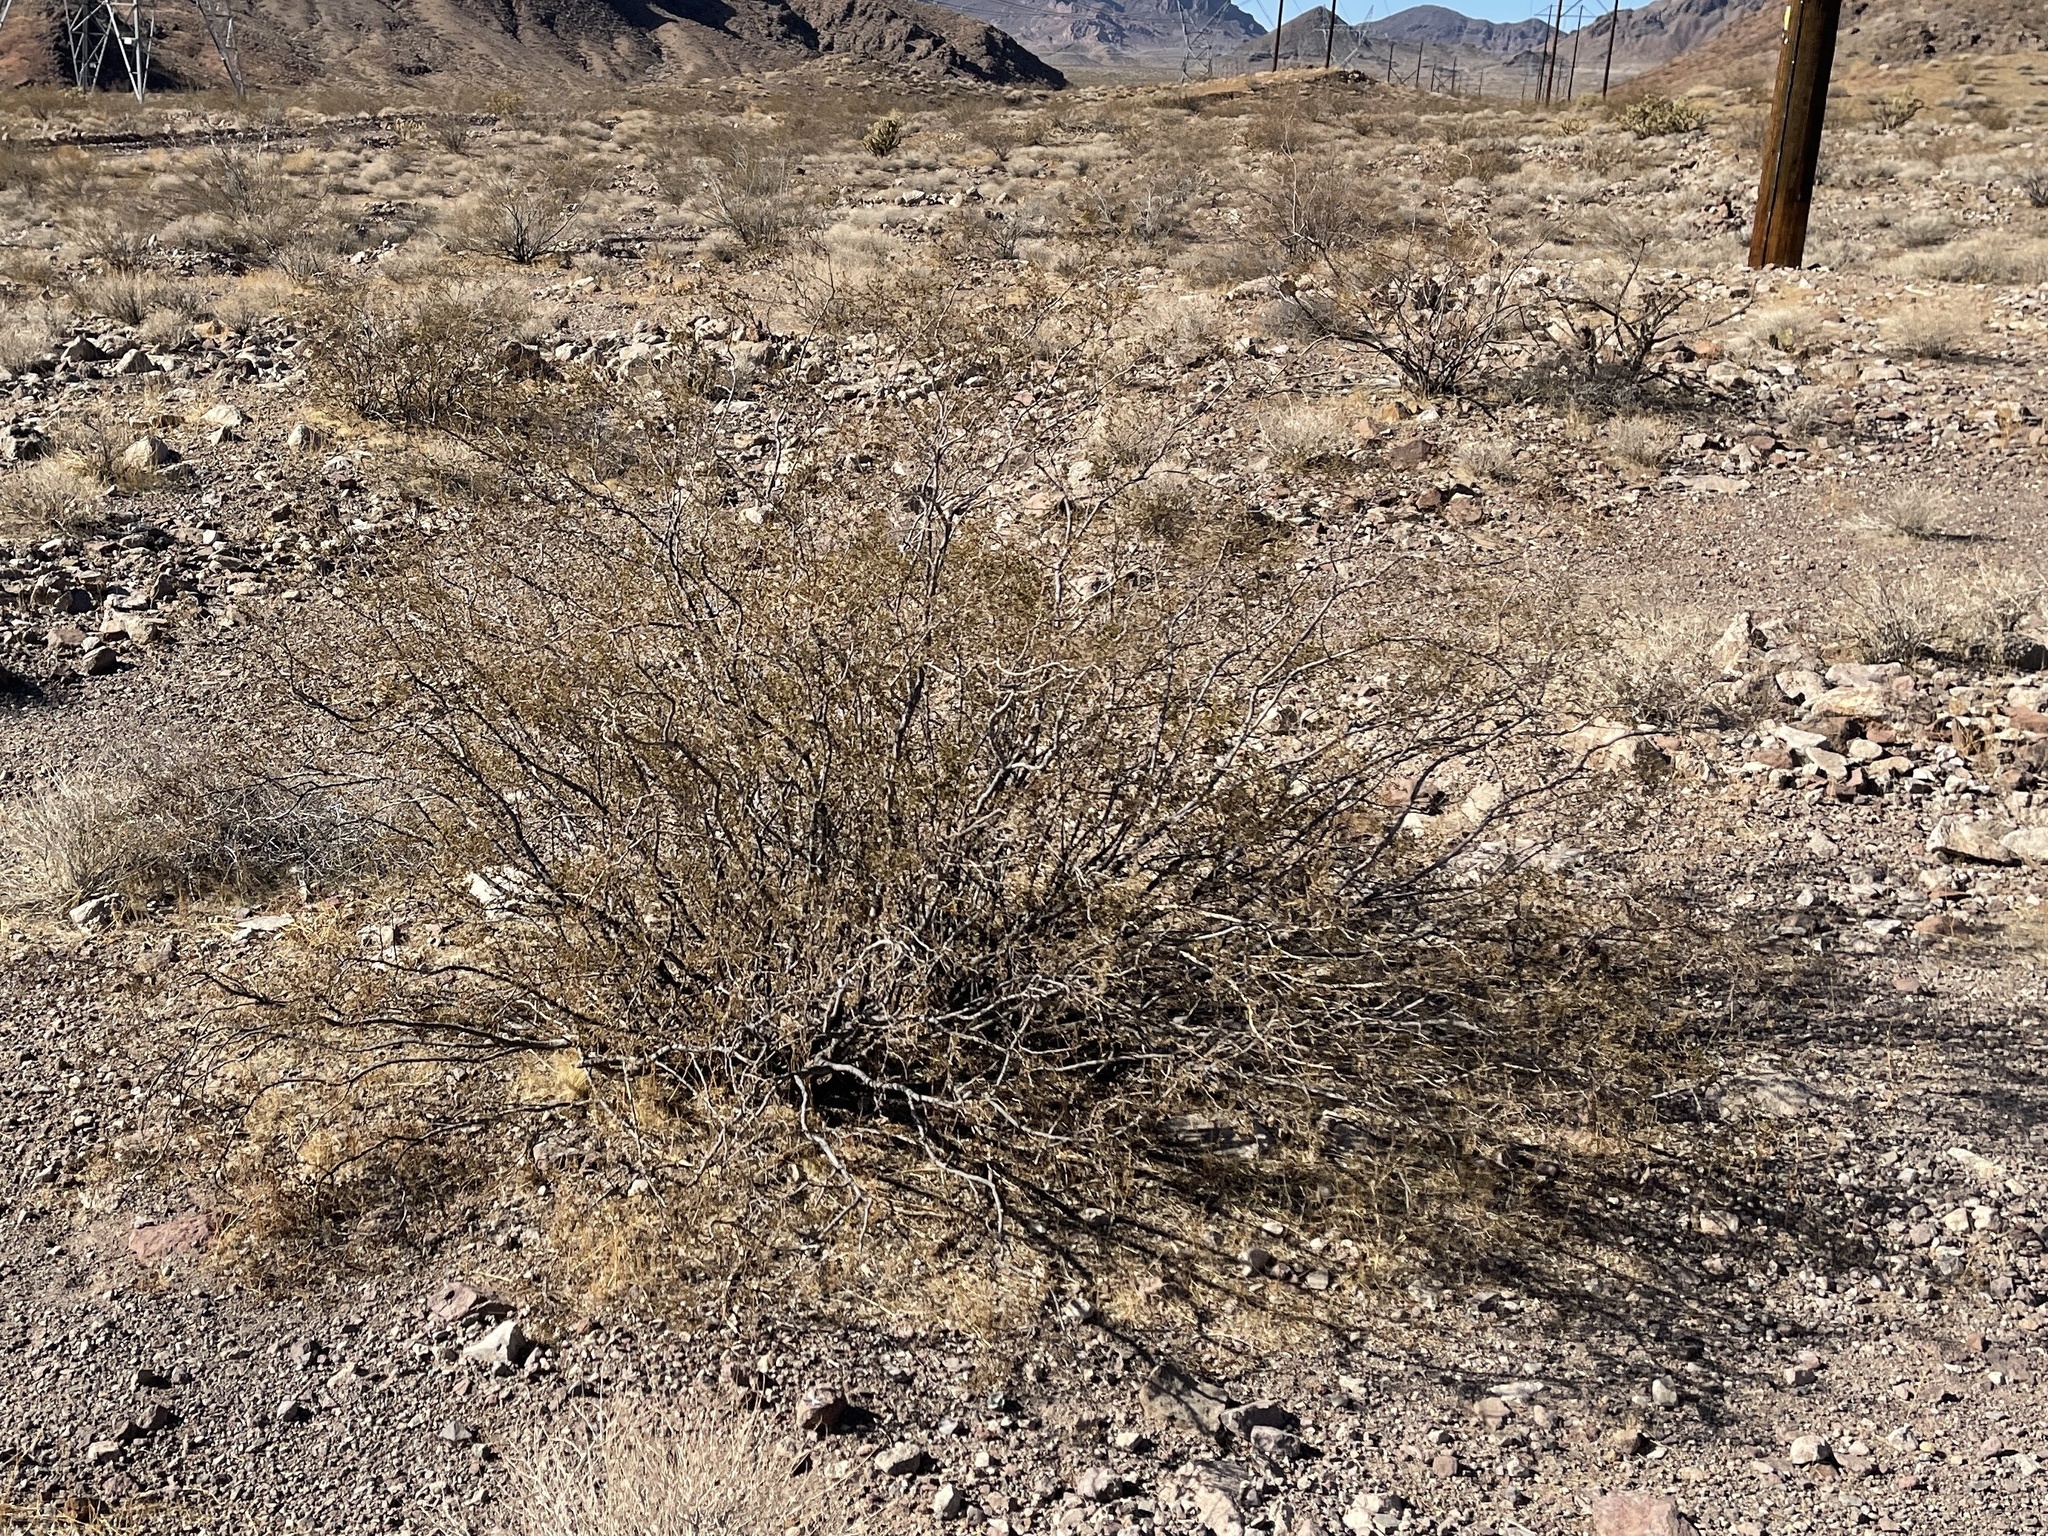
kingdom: Plantae
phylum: Tracheophyta
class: Magnoliopsida
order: Zygophyllales
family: Zygophyllaceae
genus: Larrea
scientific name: Larrea tridentata
